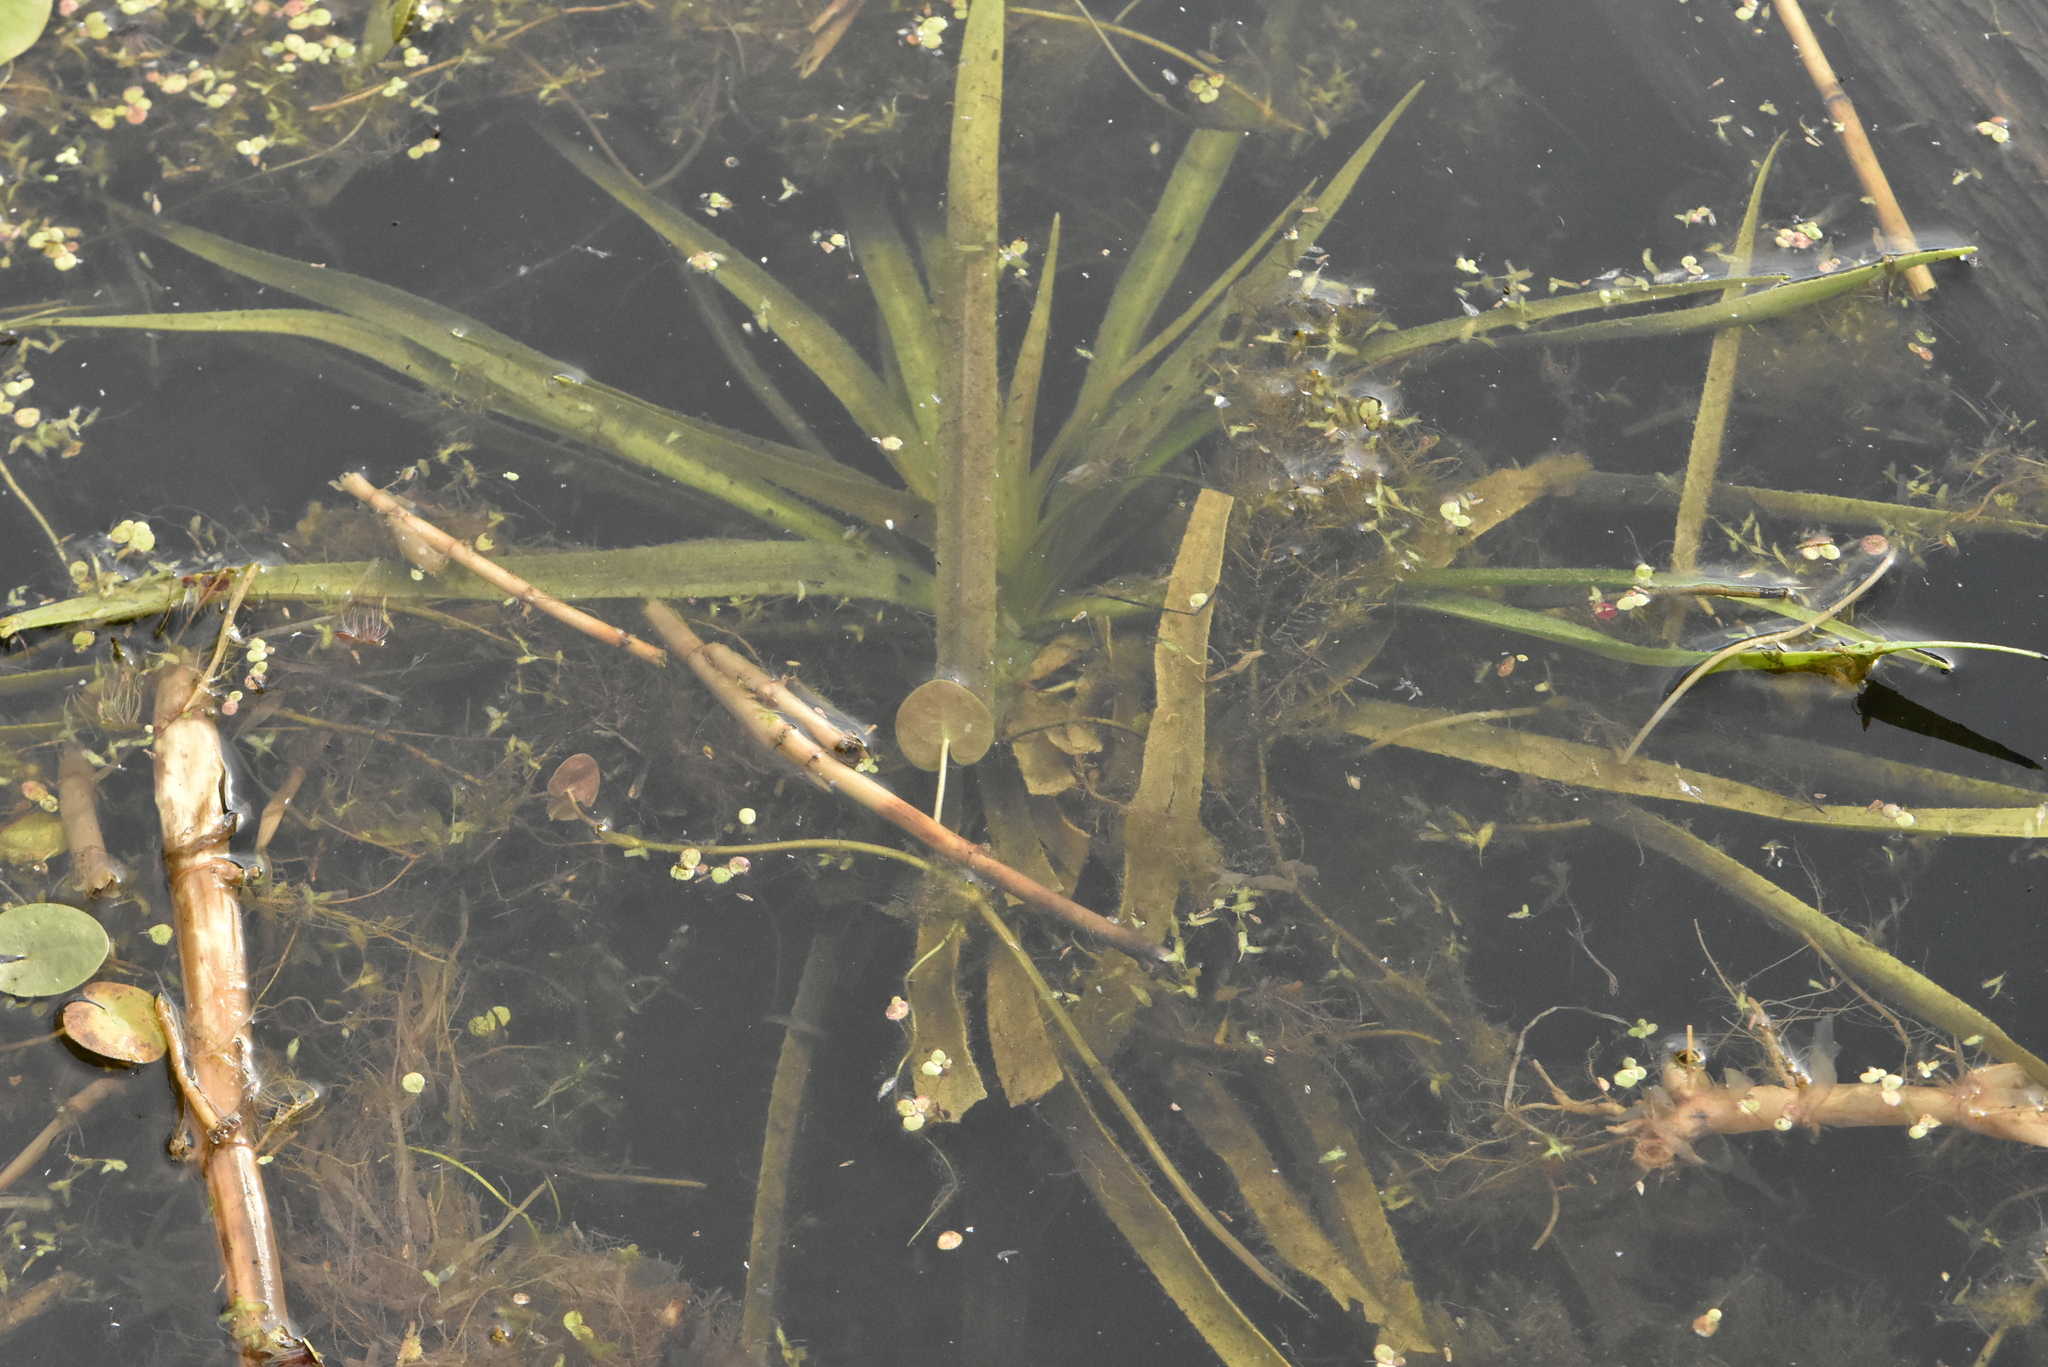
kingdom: Plantae
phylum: Tracheophyta
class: Liliopsida
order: Alismatales
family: Hydrocharitaceae
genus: Stratiotes
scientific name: Stratiotes aloides
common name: Water-soldier
